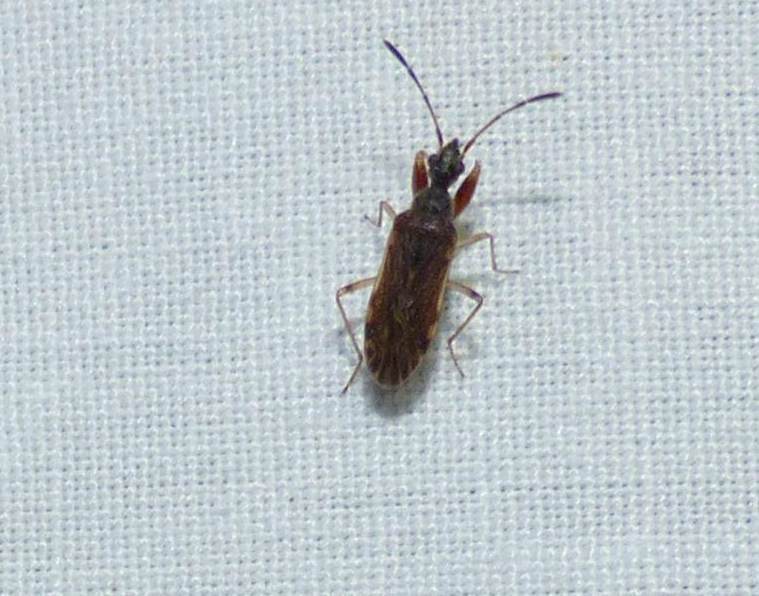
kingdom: Animalia
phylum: Arthropoda
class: Insecta
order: Hemiptera
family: Rhyparochromidae
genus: Heraeus
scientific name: Heraeus plebejus
